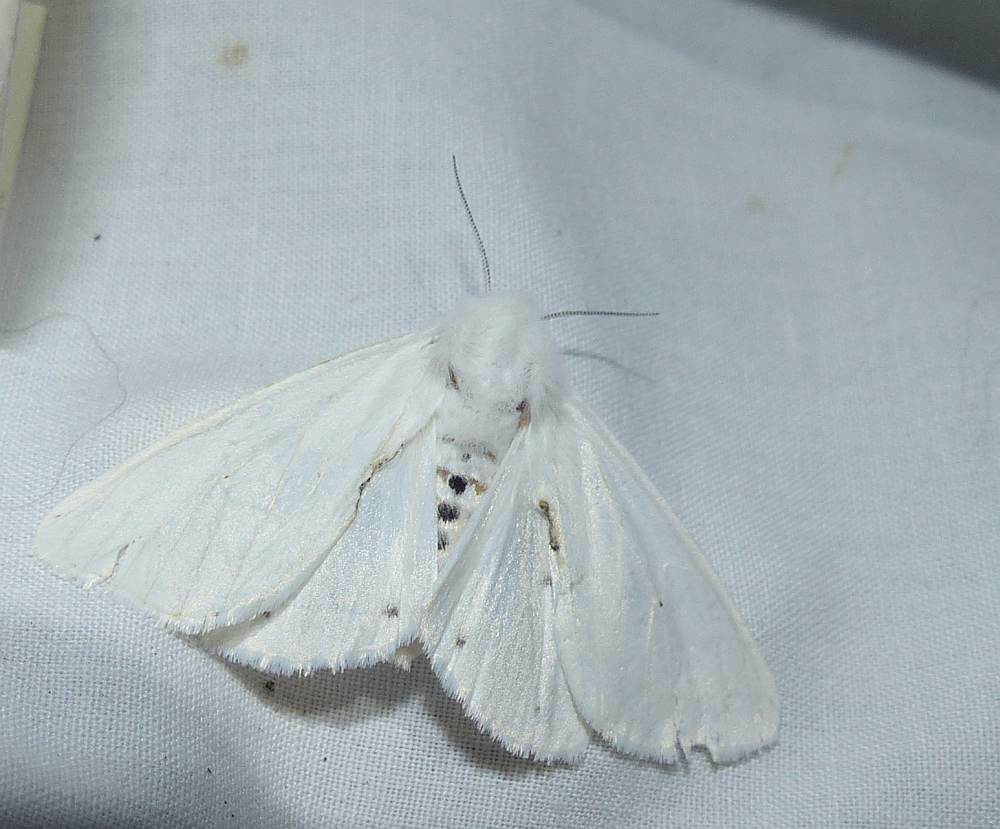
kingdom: Animalia
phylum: Arthropoda
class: Insecta
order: Lepidoptera
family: Erebidae
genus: Spilosoma
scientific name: Spilosoma virginica
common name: Virginia tiger moth
